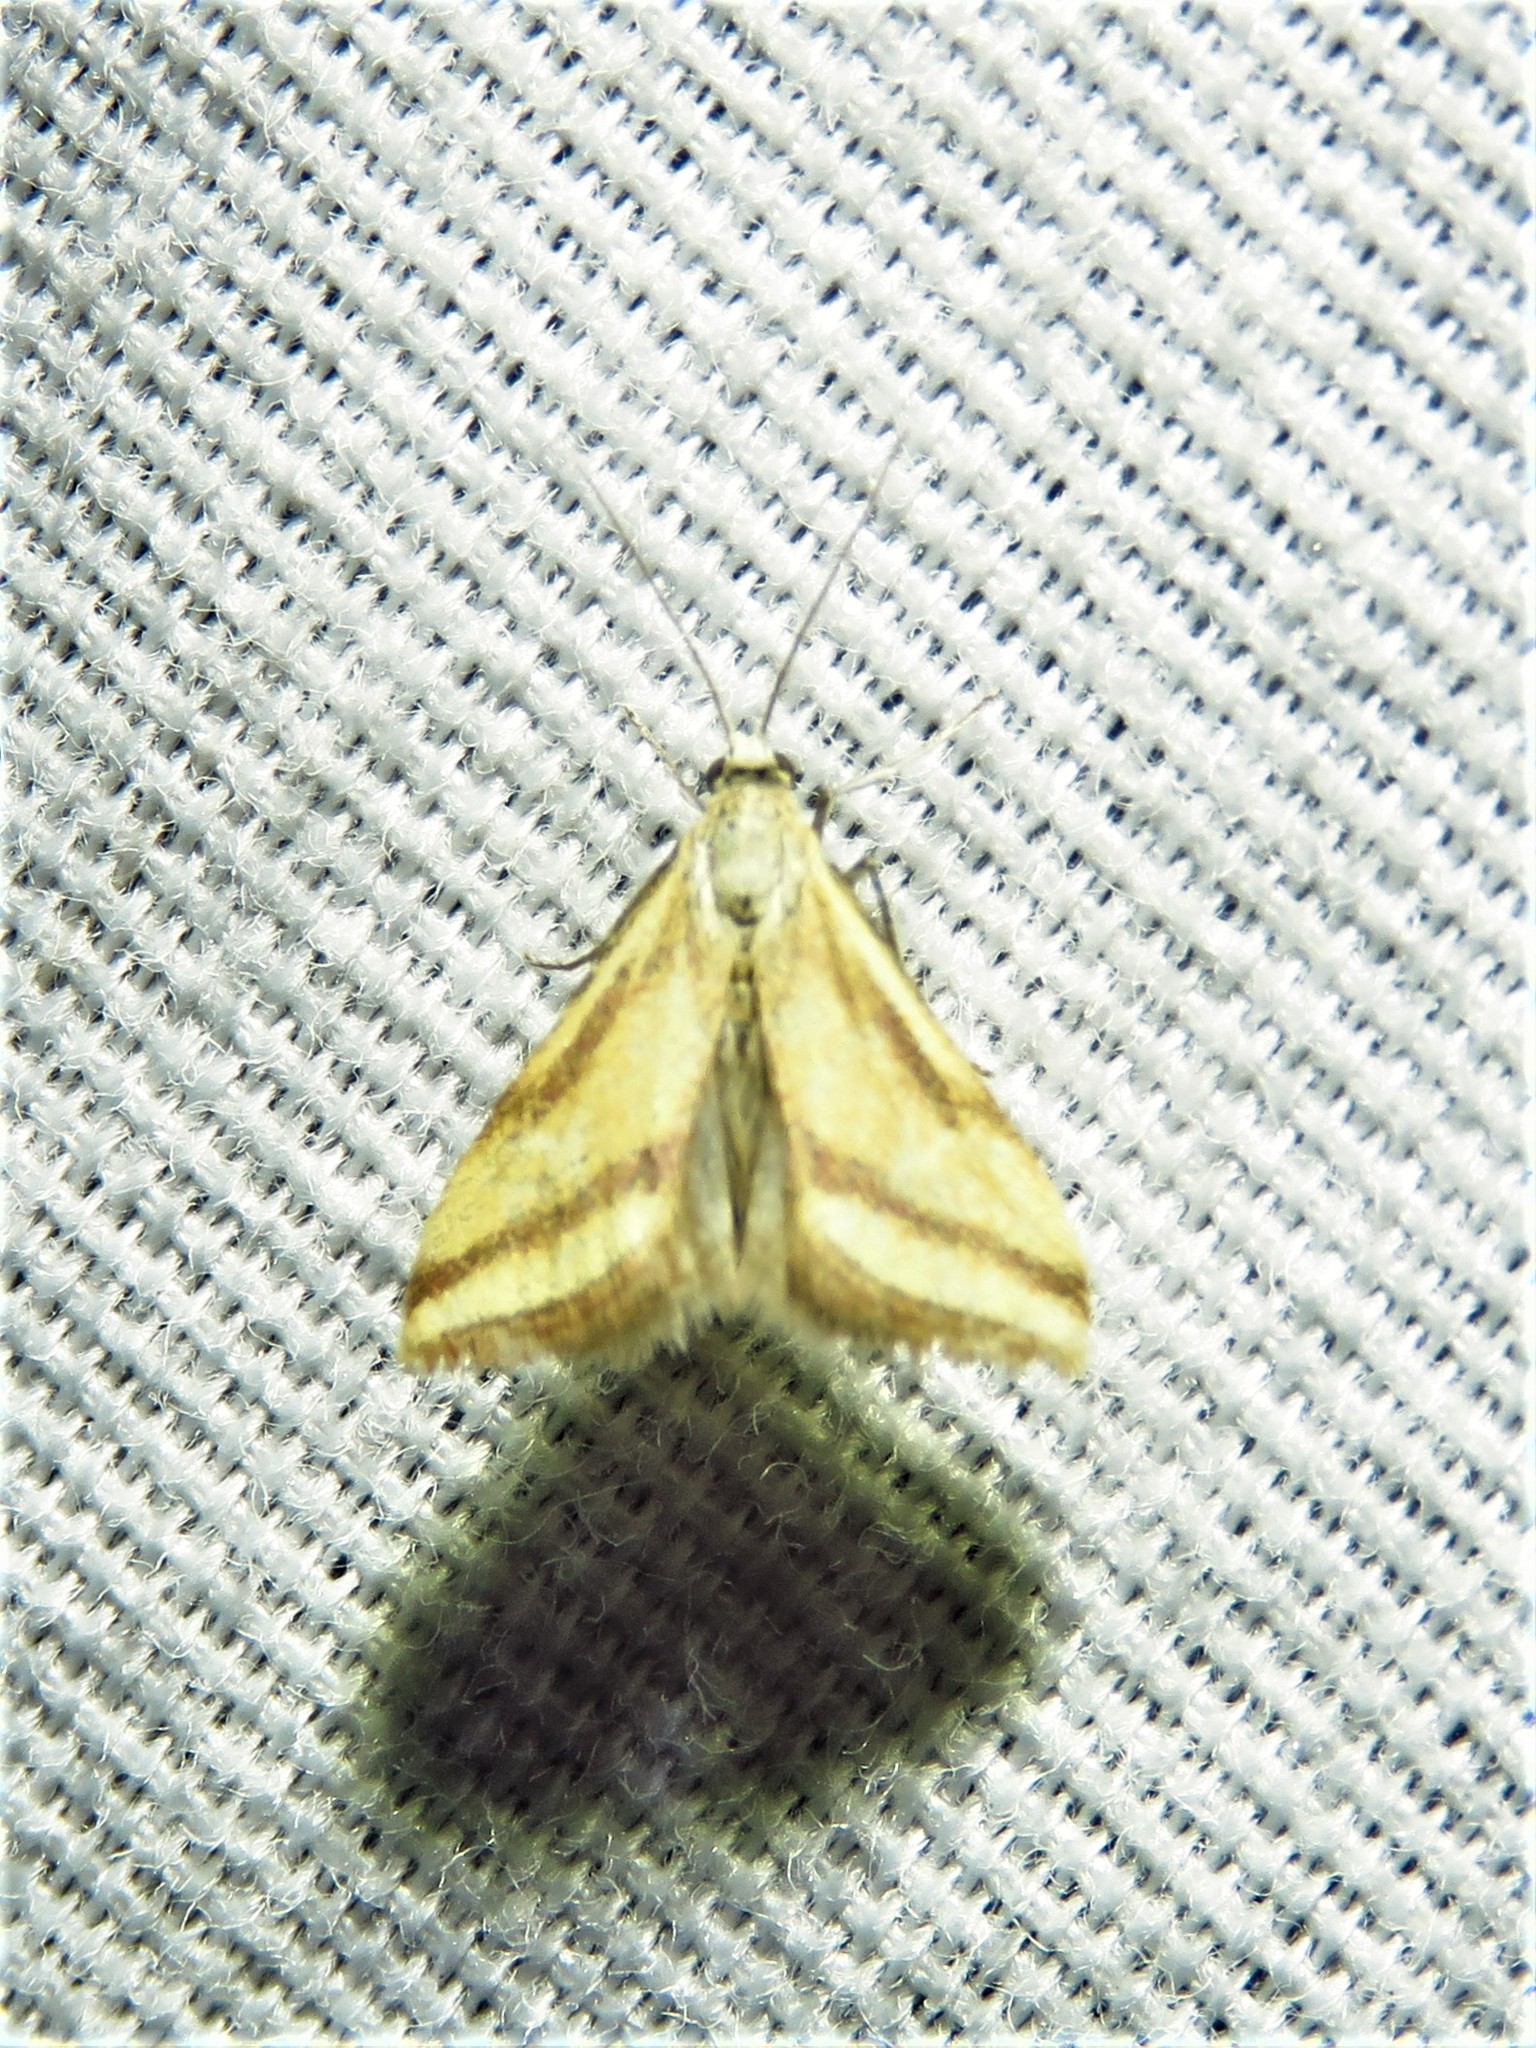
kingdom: Animalia
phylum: Arthropoda
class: Insecta
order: Lepidoptera
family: Crambidae
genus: Microtheoris
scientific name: Microtheoris vibicalis
